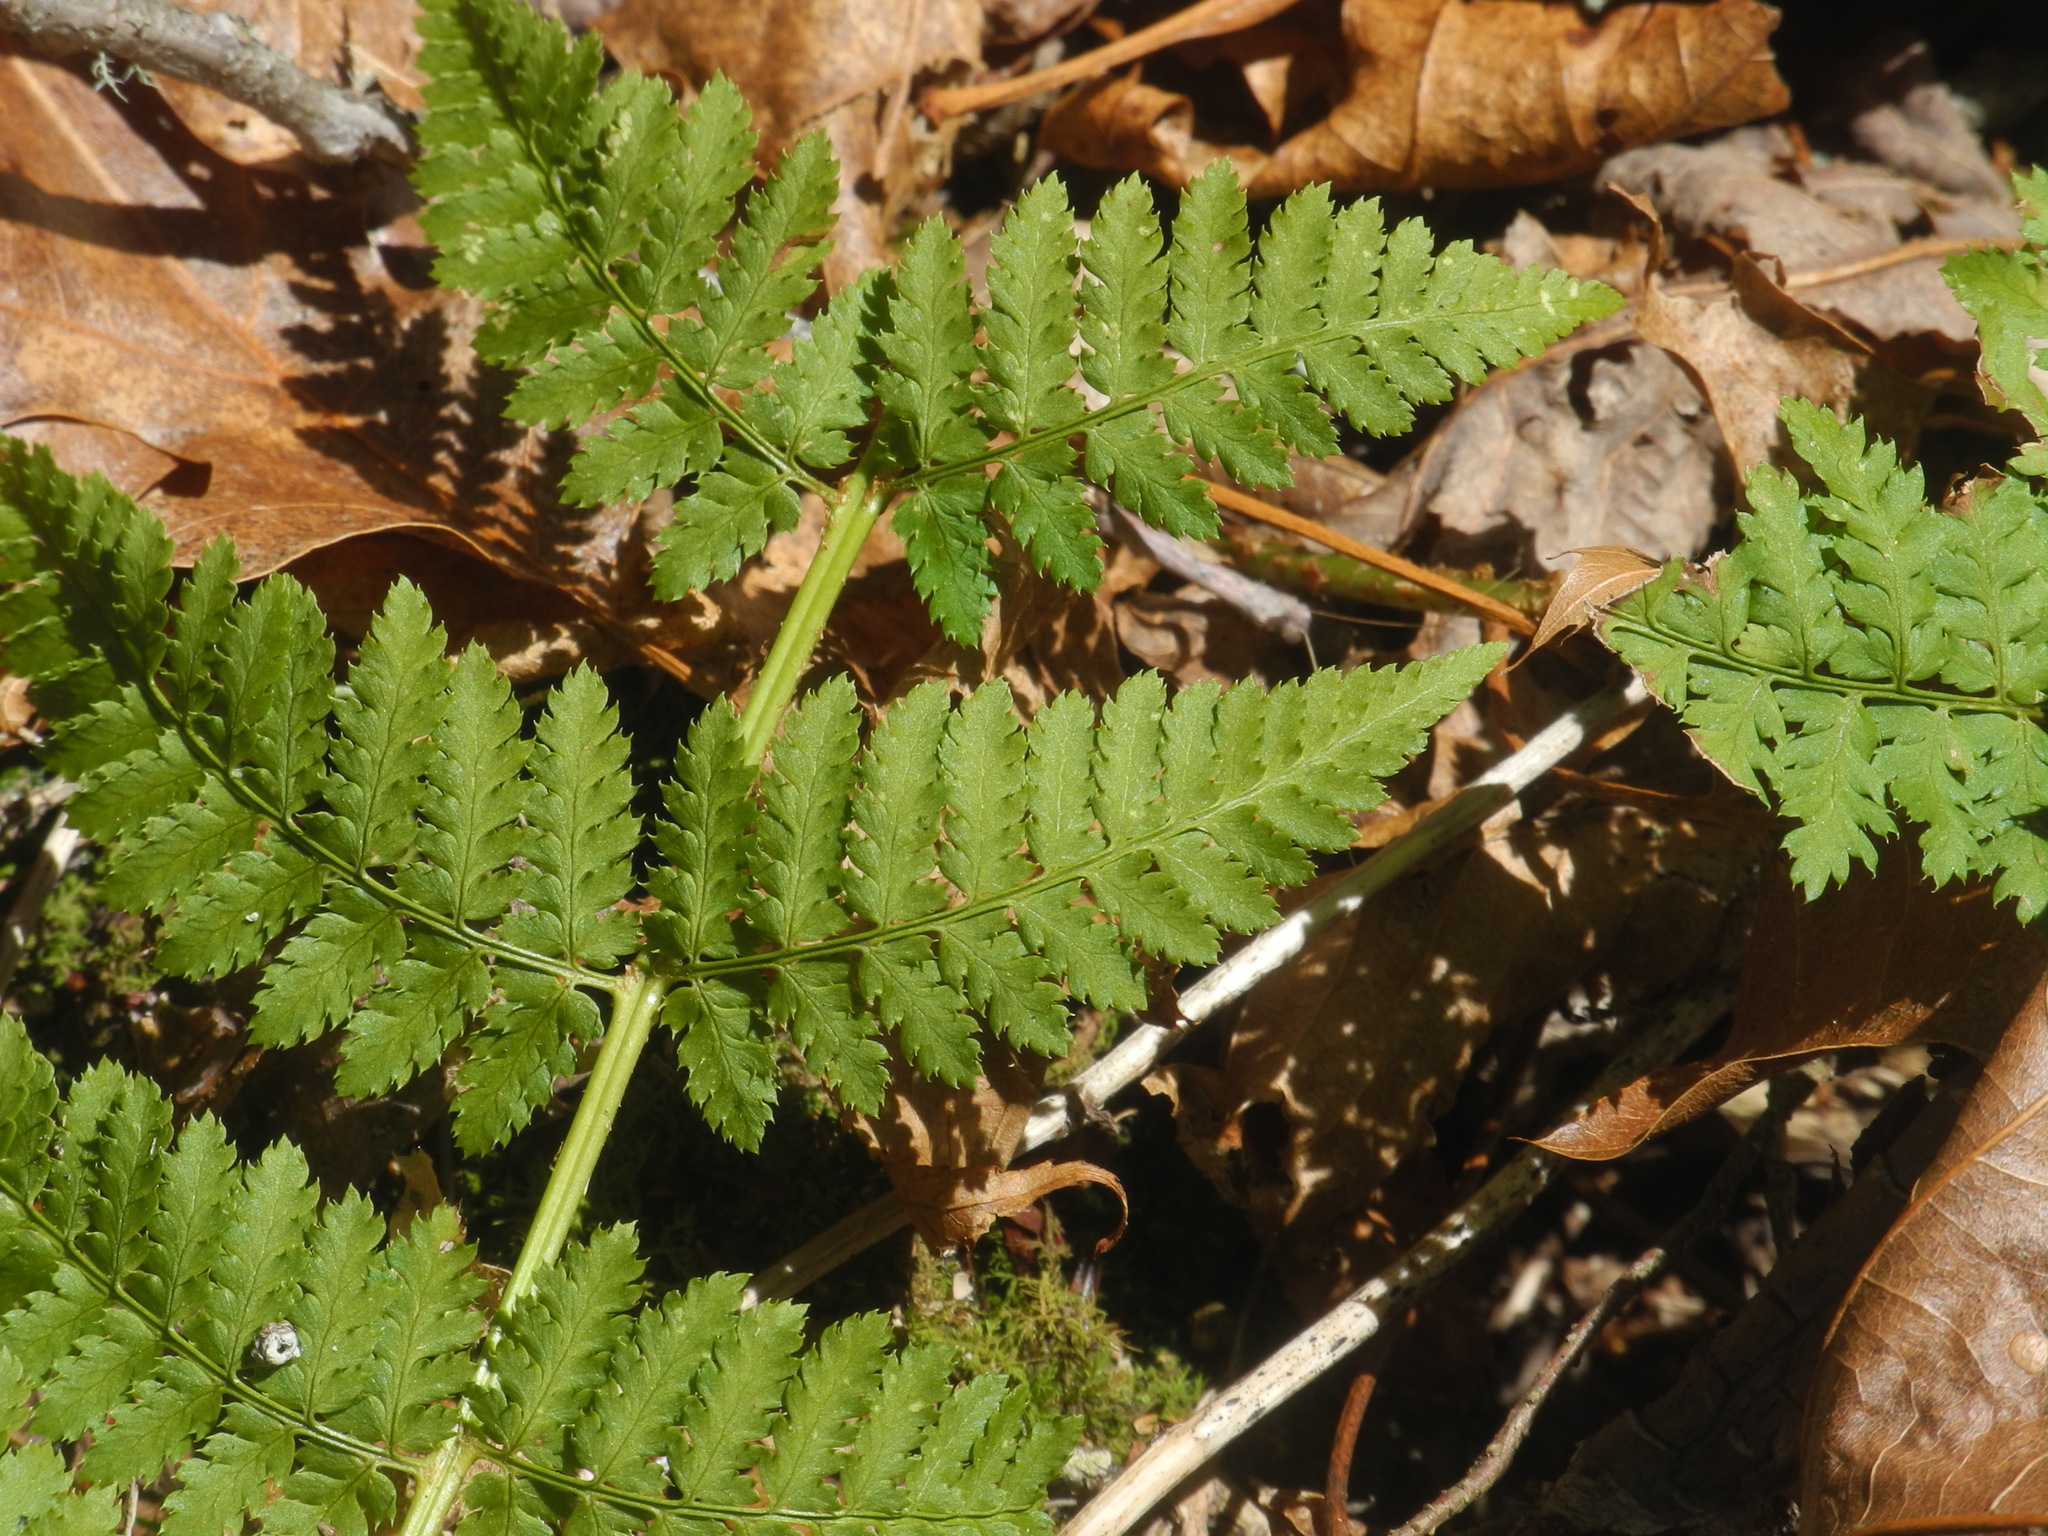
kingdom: Plantae
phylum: Tracheophyta
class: Polypodiopsida
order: Polypodiales
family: Dryopteridaceae
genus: Dryopteris
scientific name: Dryopteris intermedia
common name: Evergreen wood fern
